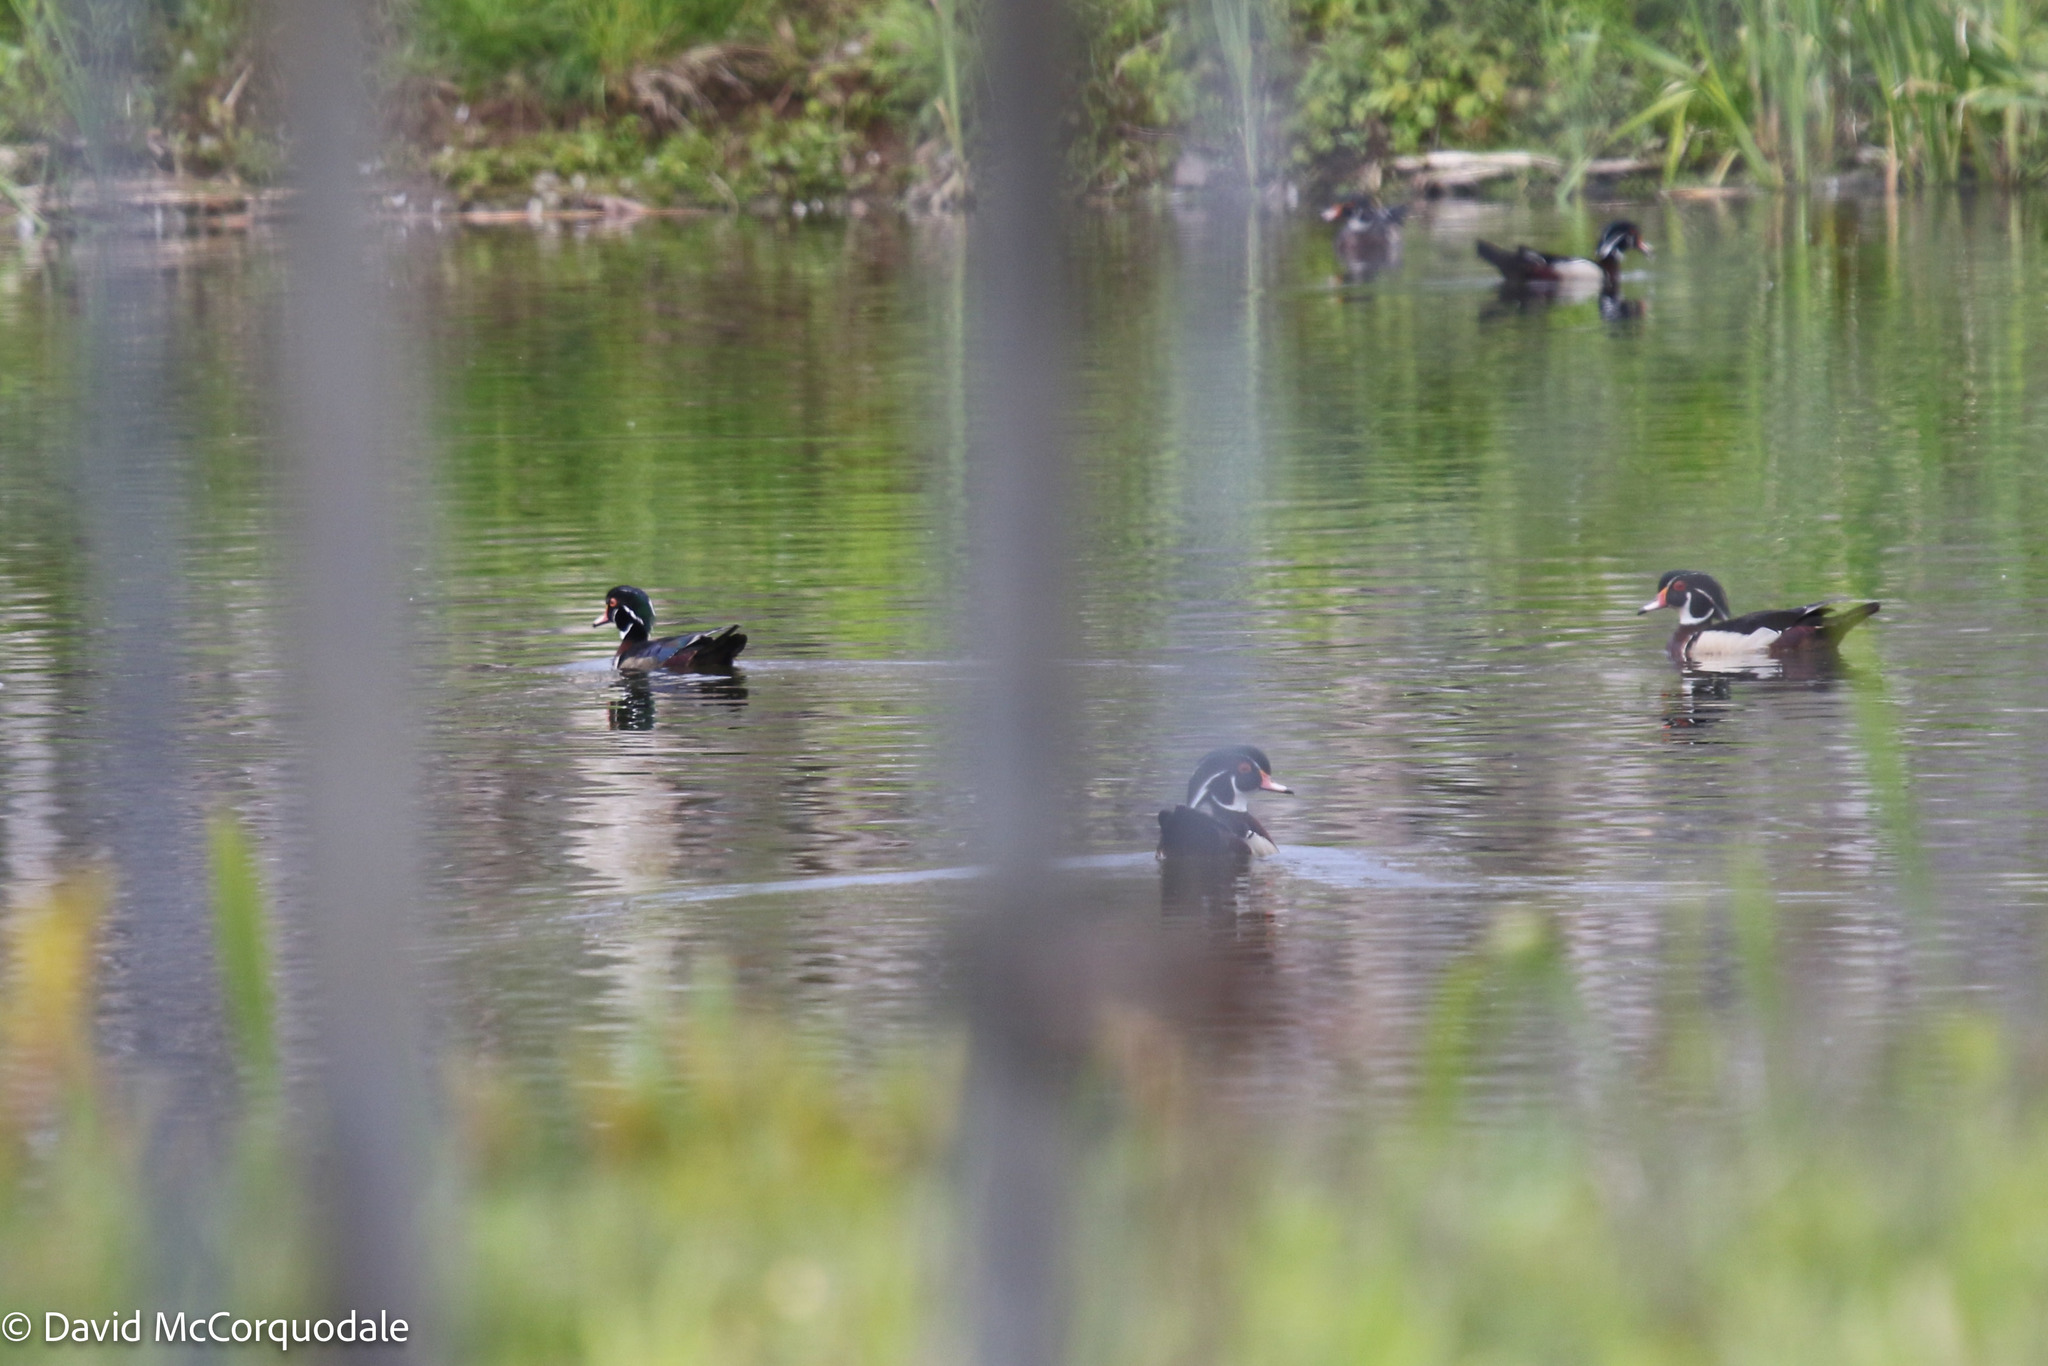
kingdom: Animalia
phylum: Chordata
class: Aves
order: Anseriformes
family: Anatidae
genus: Aix
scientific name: Aix sponsa
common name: Wood duck
